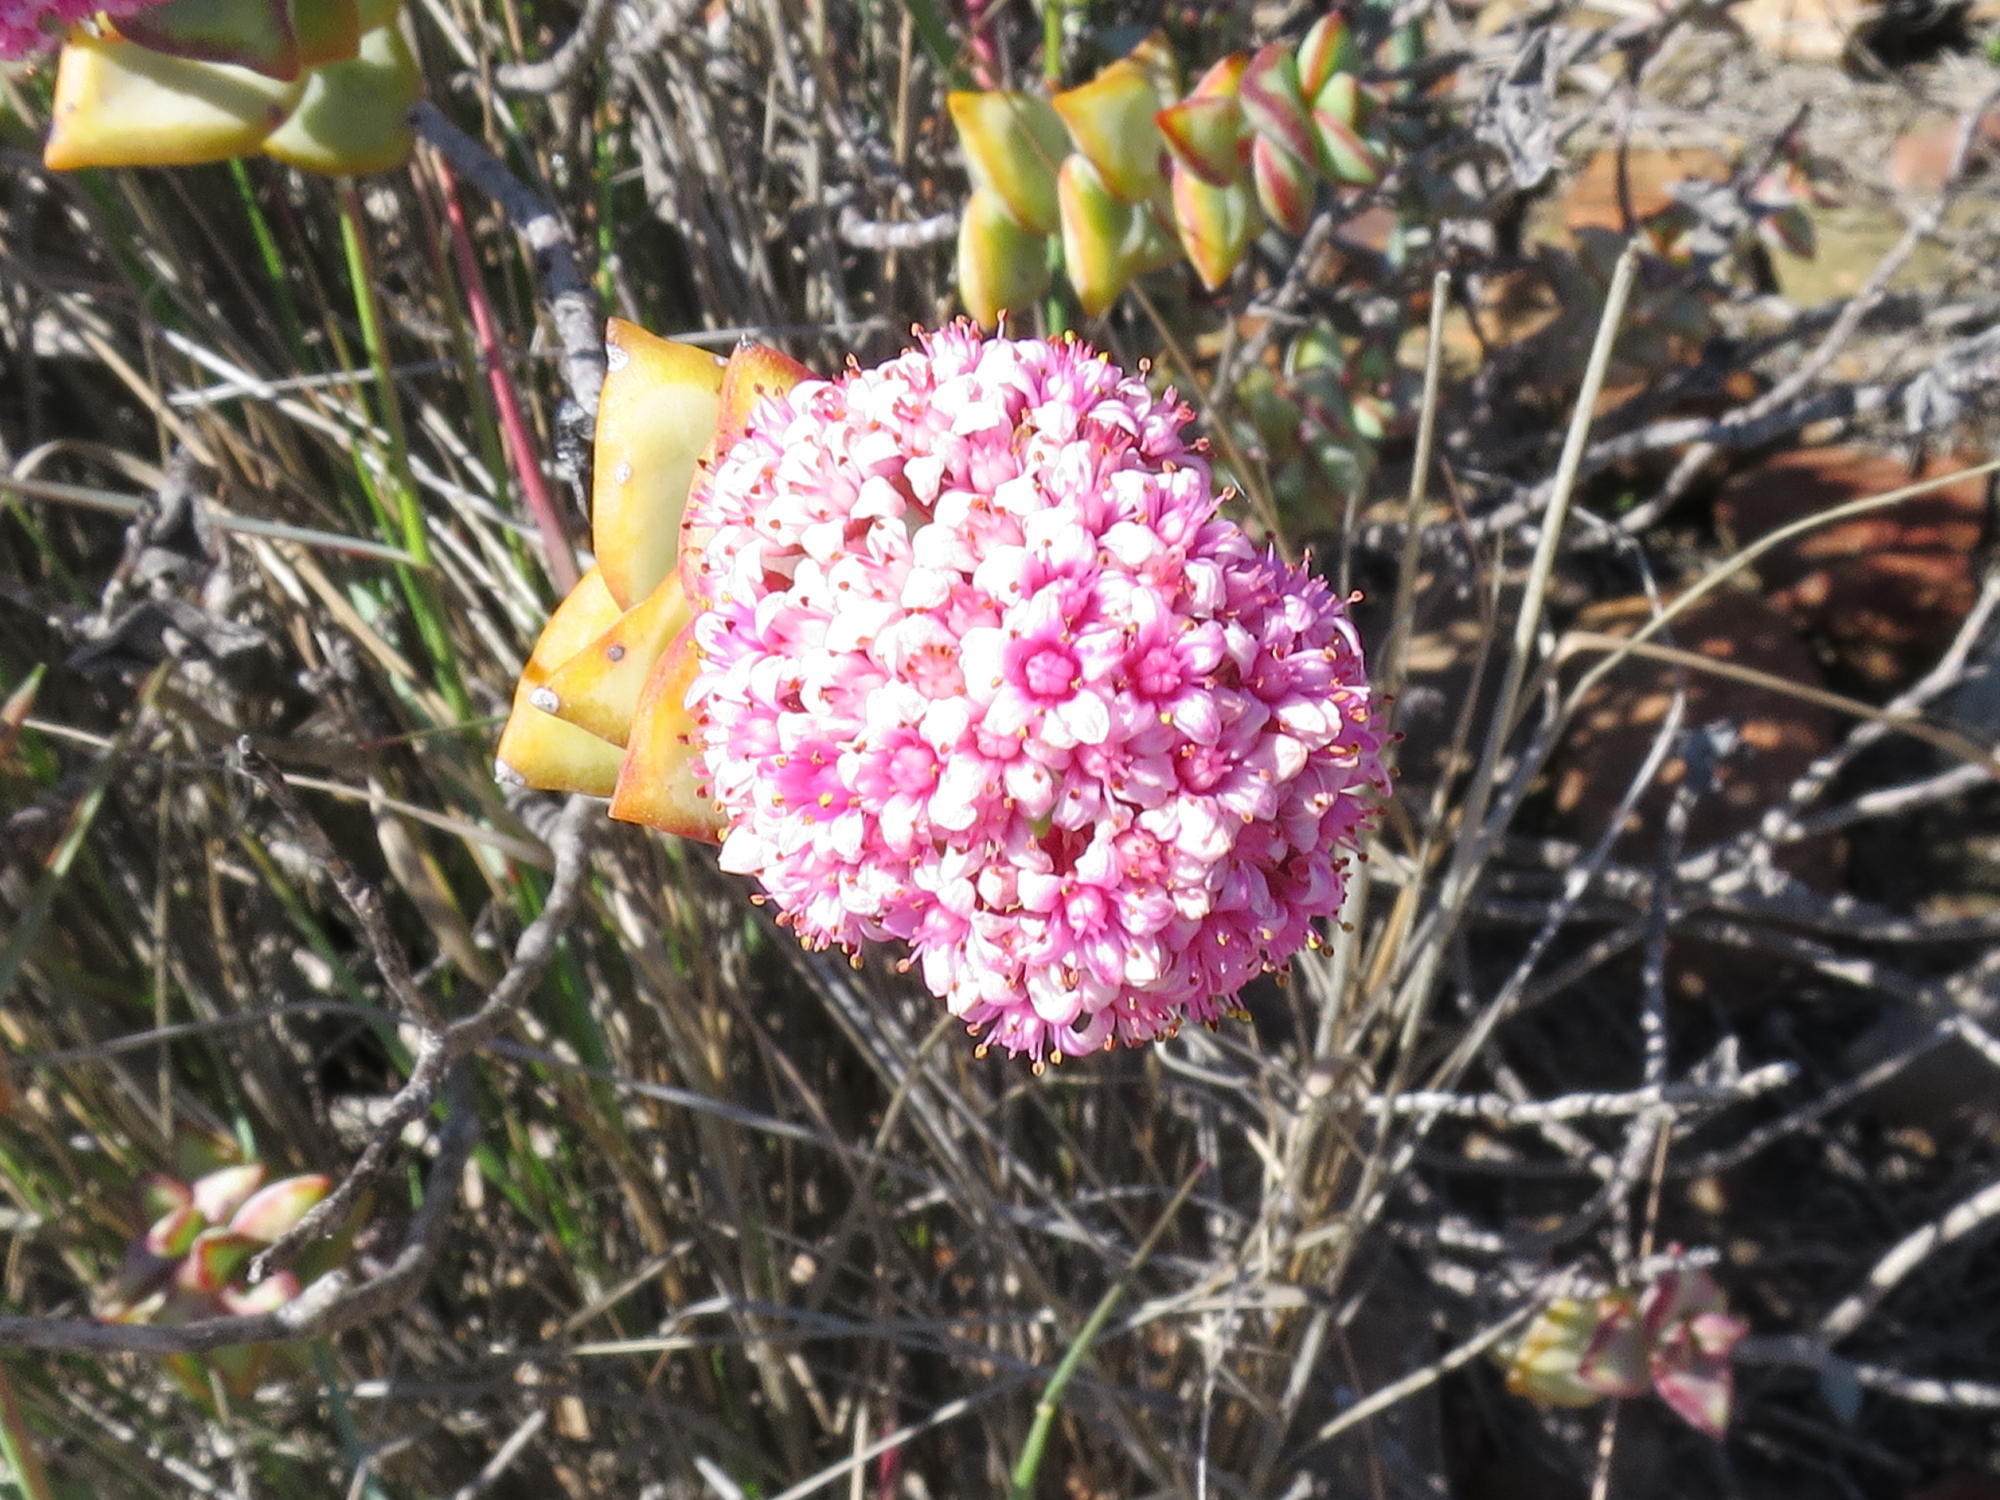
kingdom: Plantae
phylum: Tracheophyta
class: Magnoliopsida
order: Saxifragales
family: Crassulaceae
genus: Crassula
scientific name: Crassula rupestris
